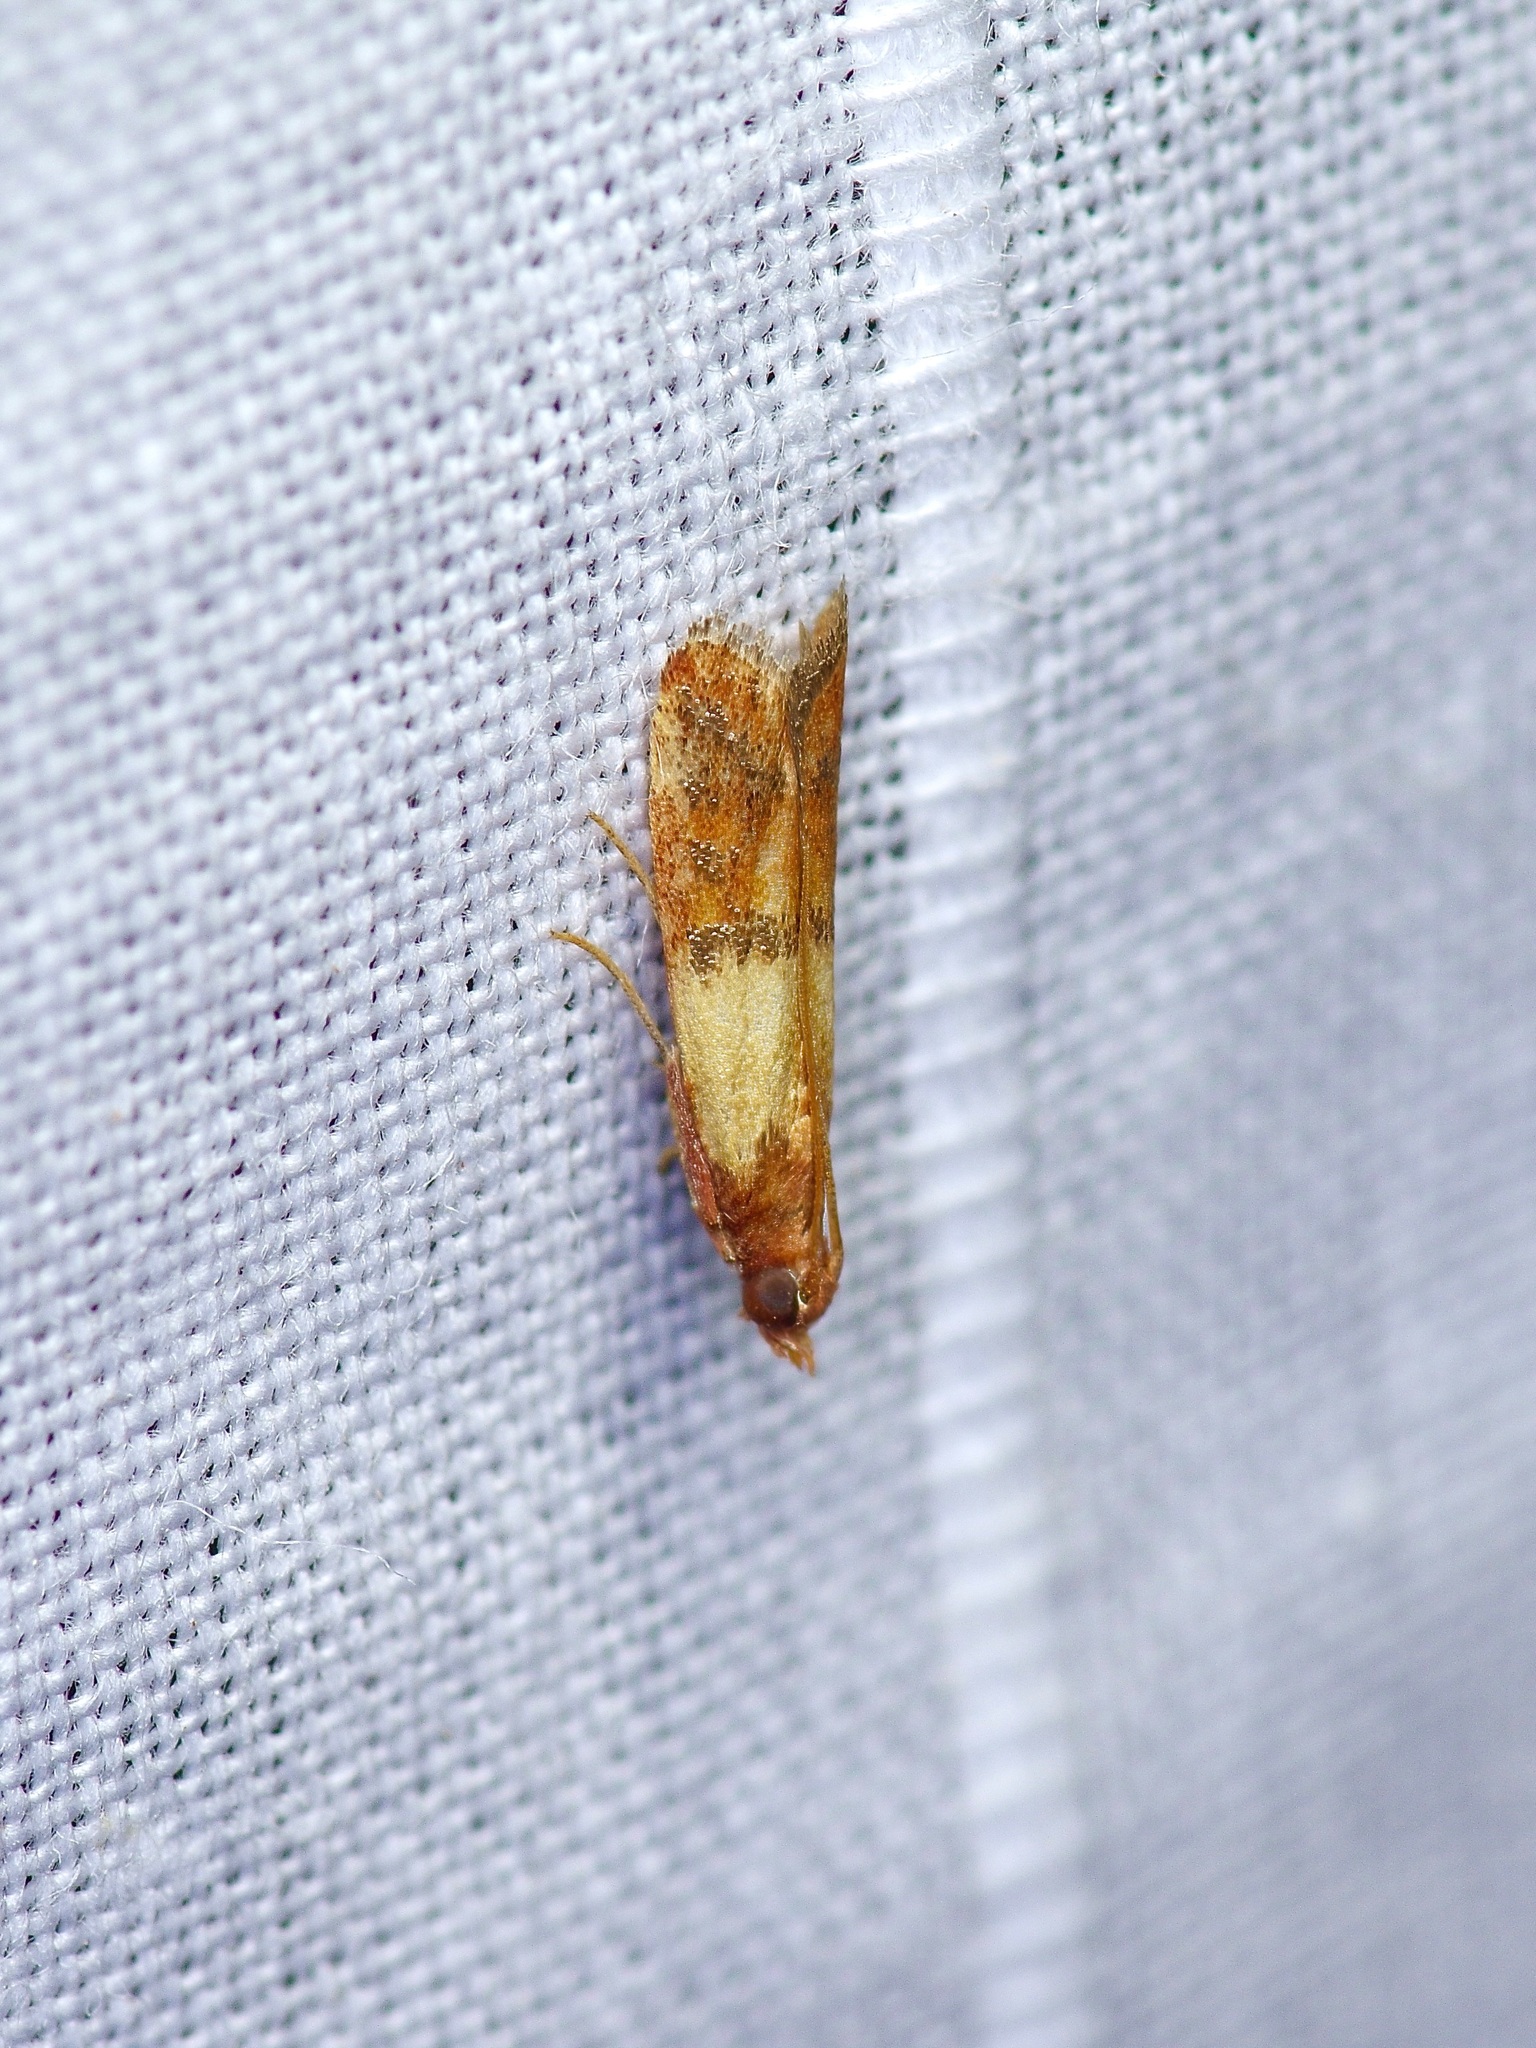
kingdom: Animalia
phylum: Arthropoda
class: Insecta
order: Lepidoptera
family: Pyralidae
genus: Plodia
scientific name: Plodia interpunctella
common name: Indian meal moth
